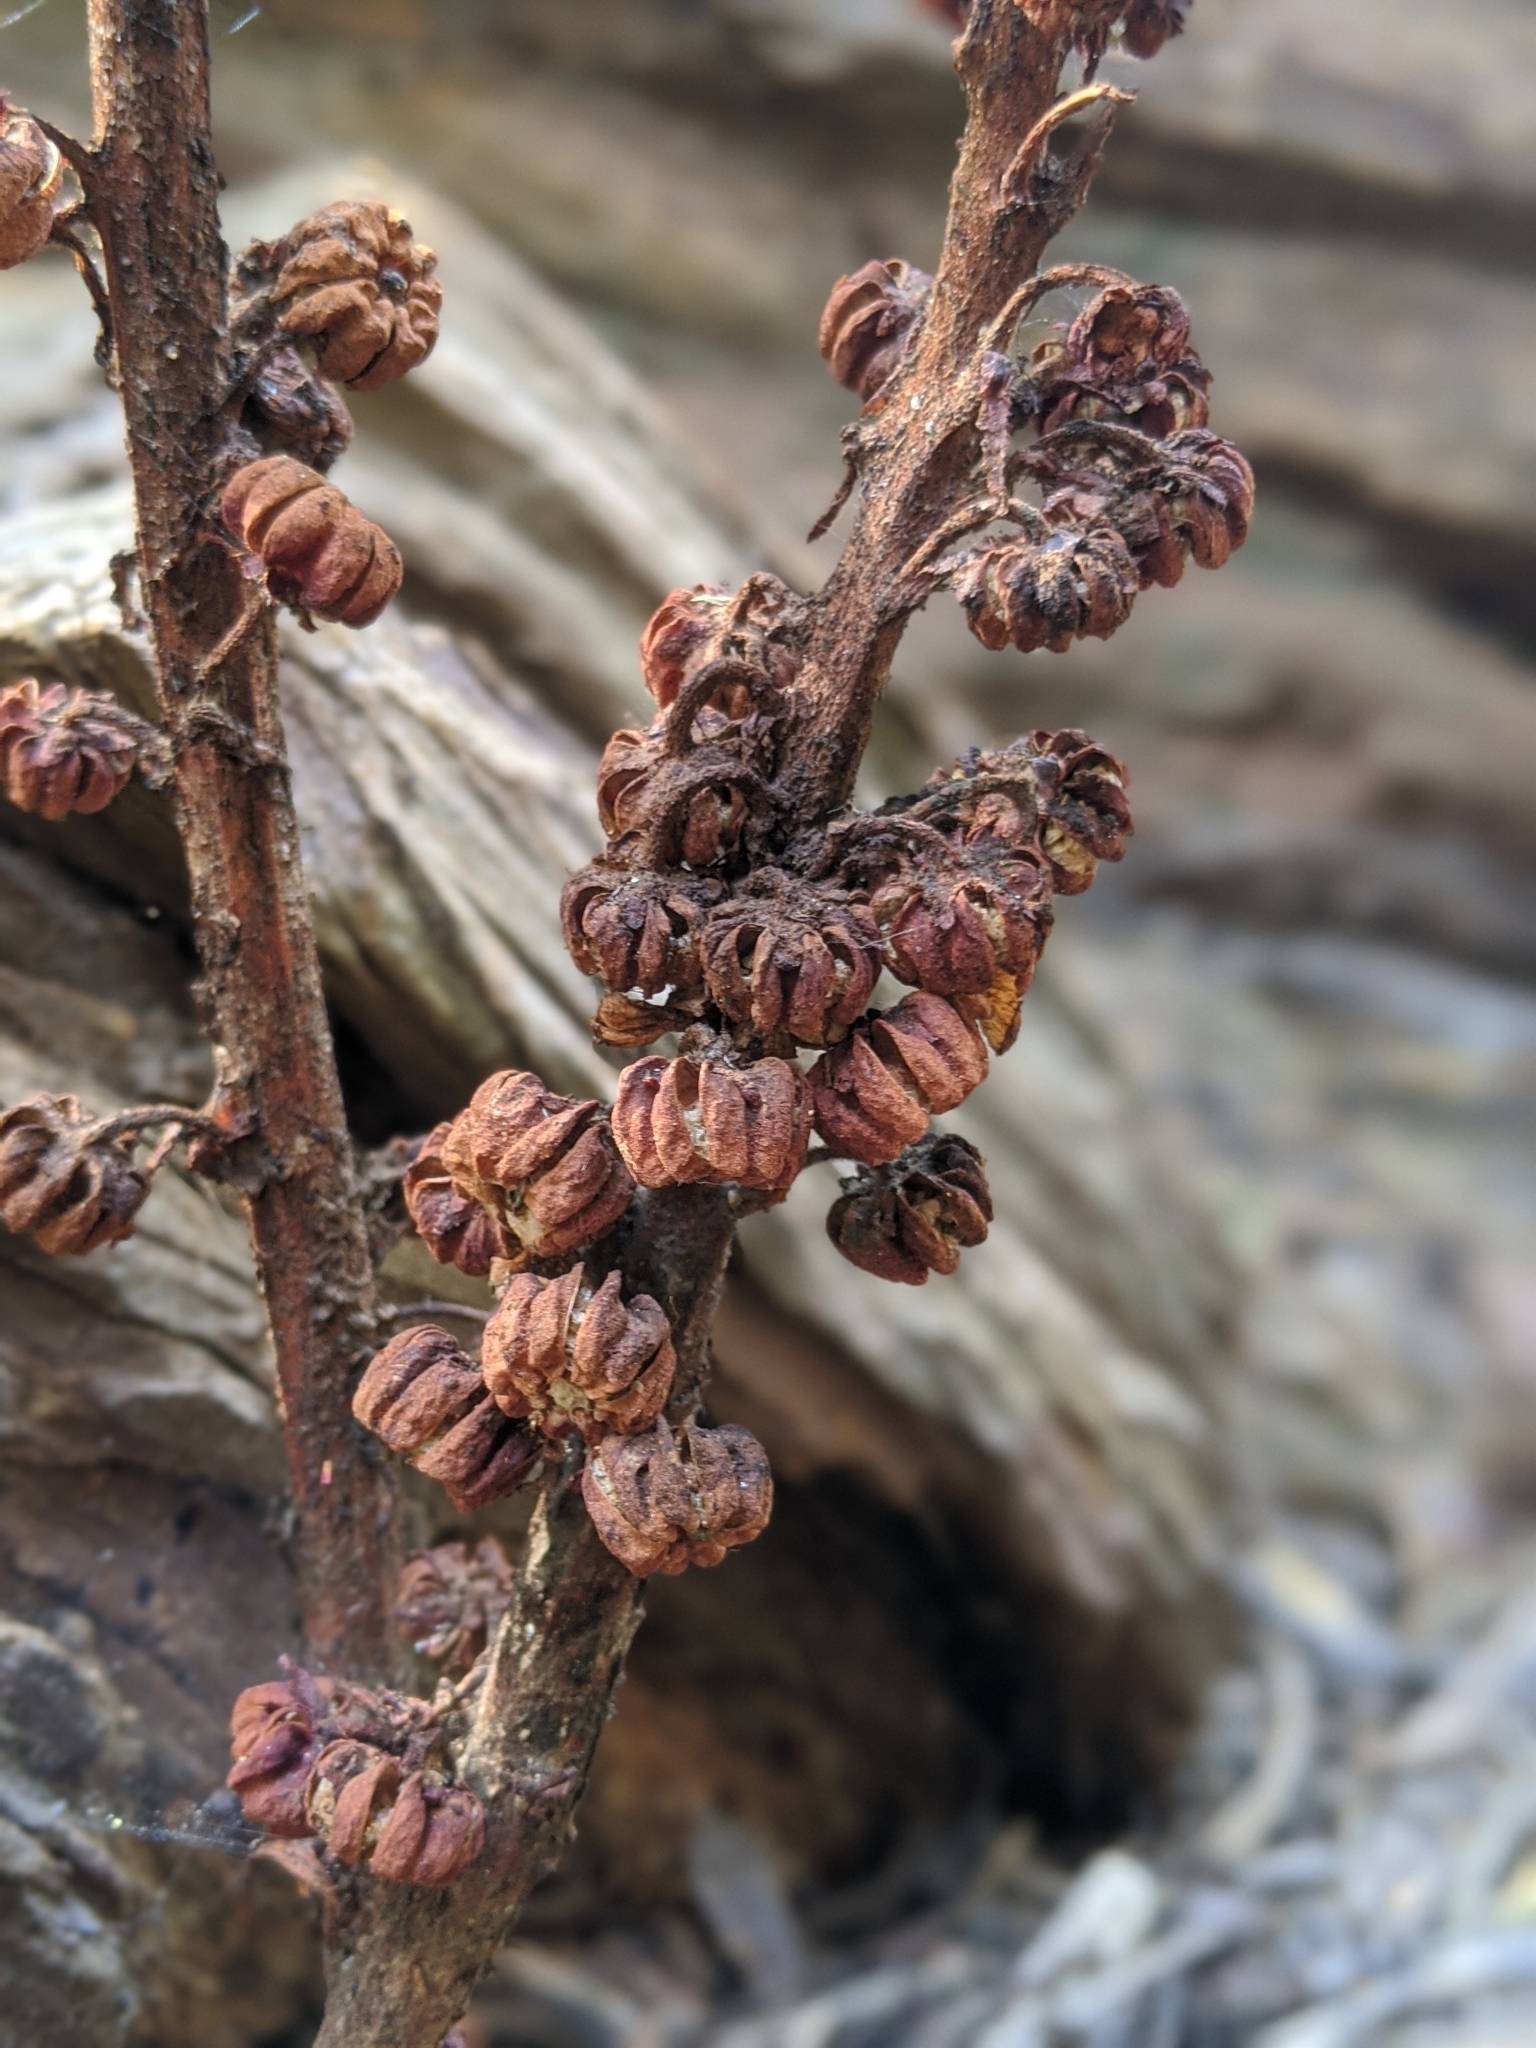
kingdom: Plantae
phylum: Tracheophyta
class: Magnoliopsida
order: Ericales
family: Ericaceae
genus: Pterospora
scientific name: Pterospora andromedea
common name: Giant bird's-nest
